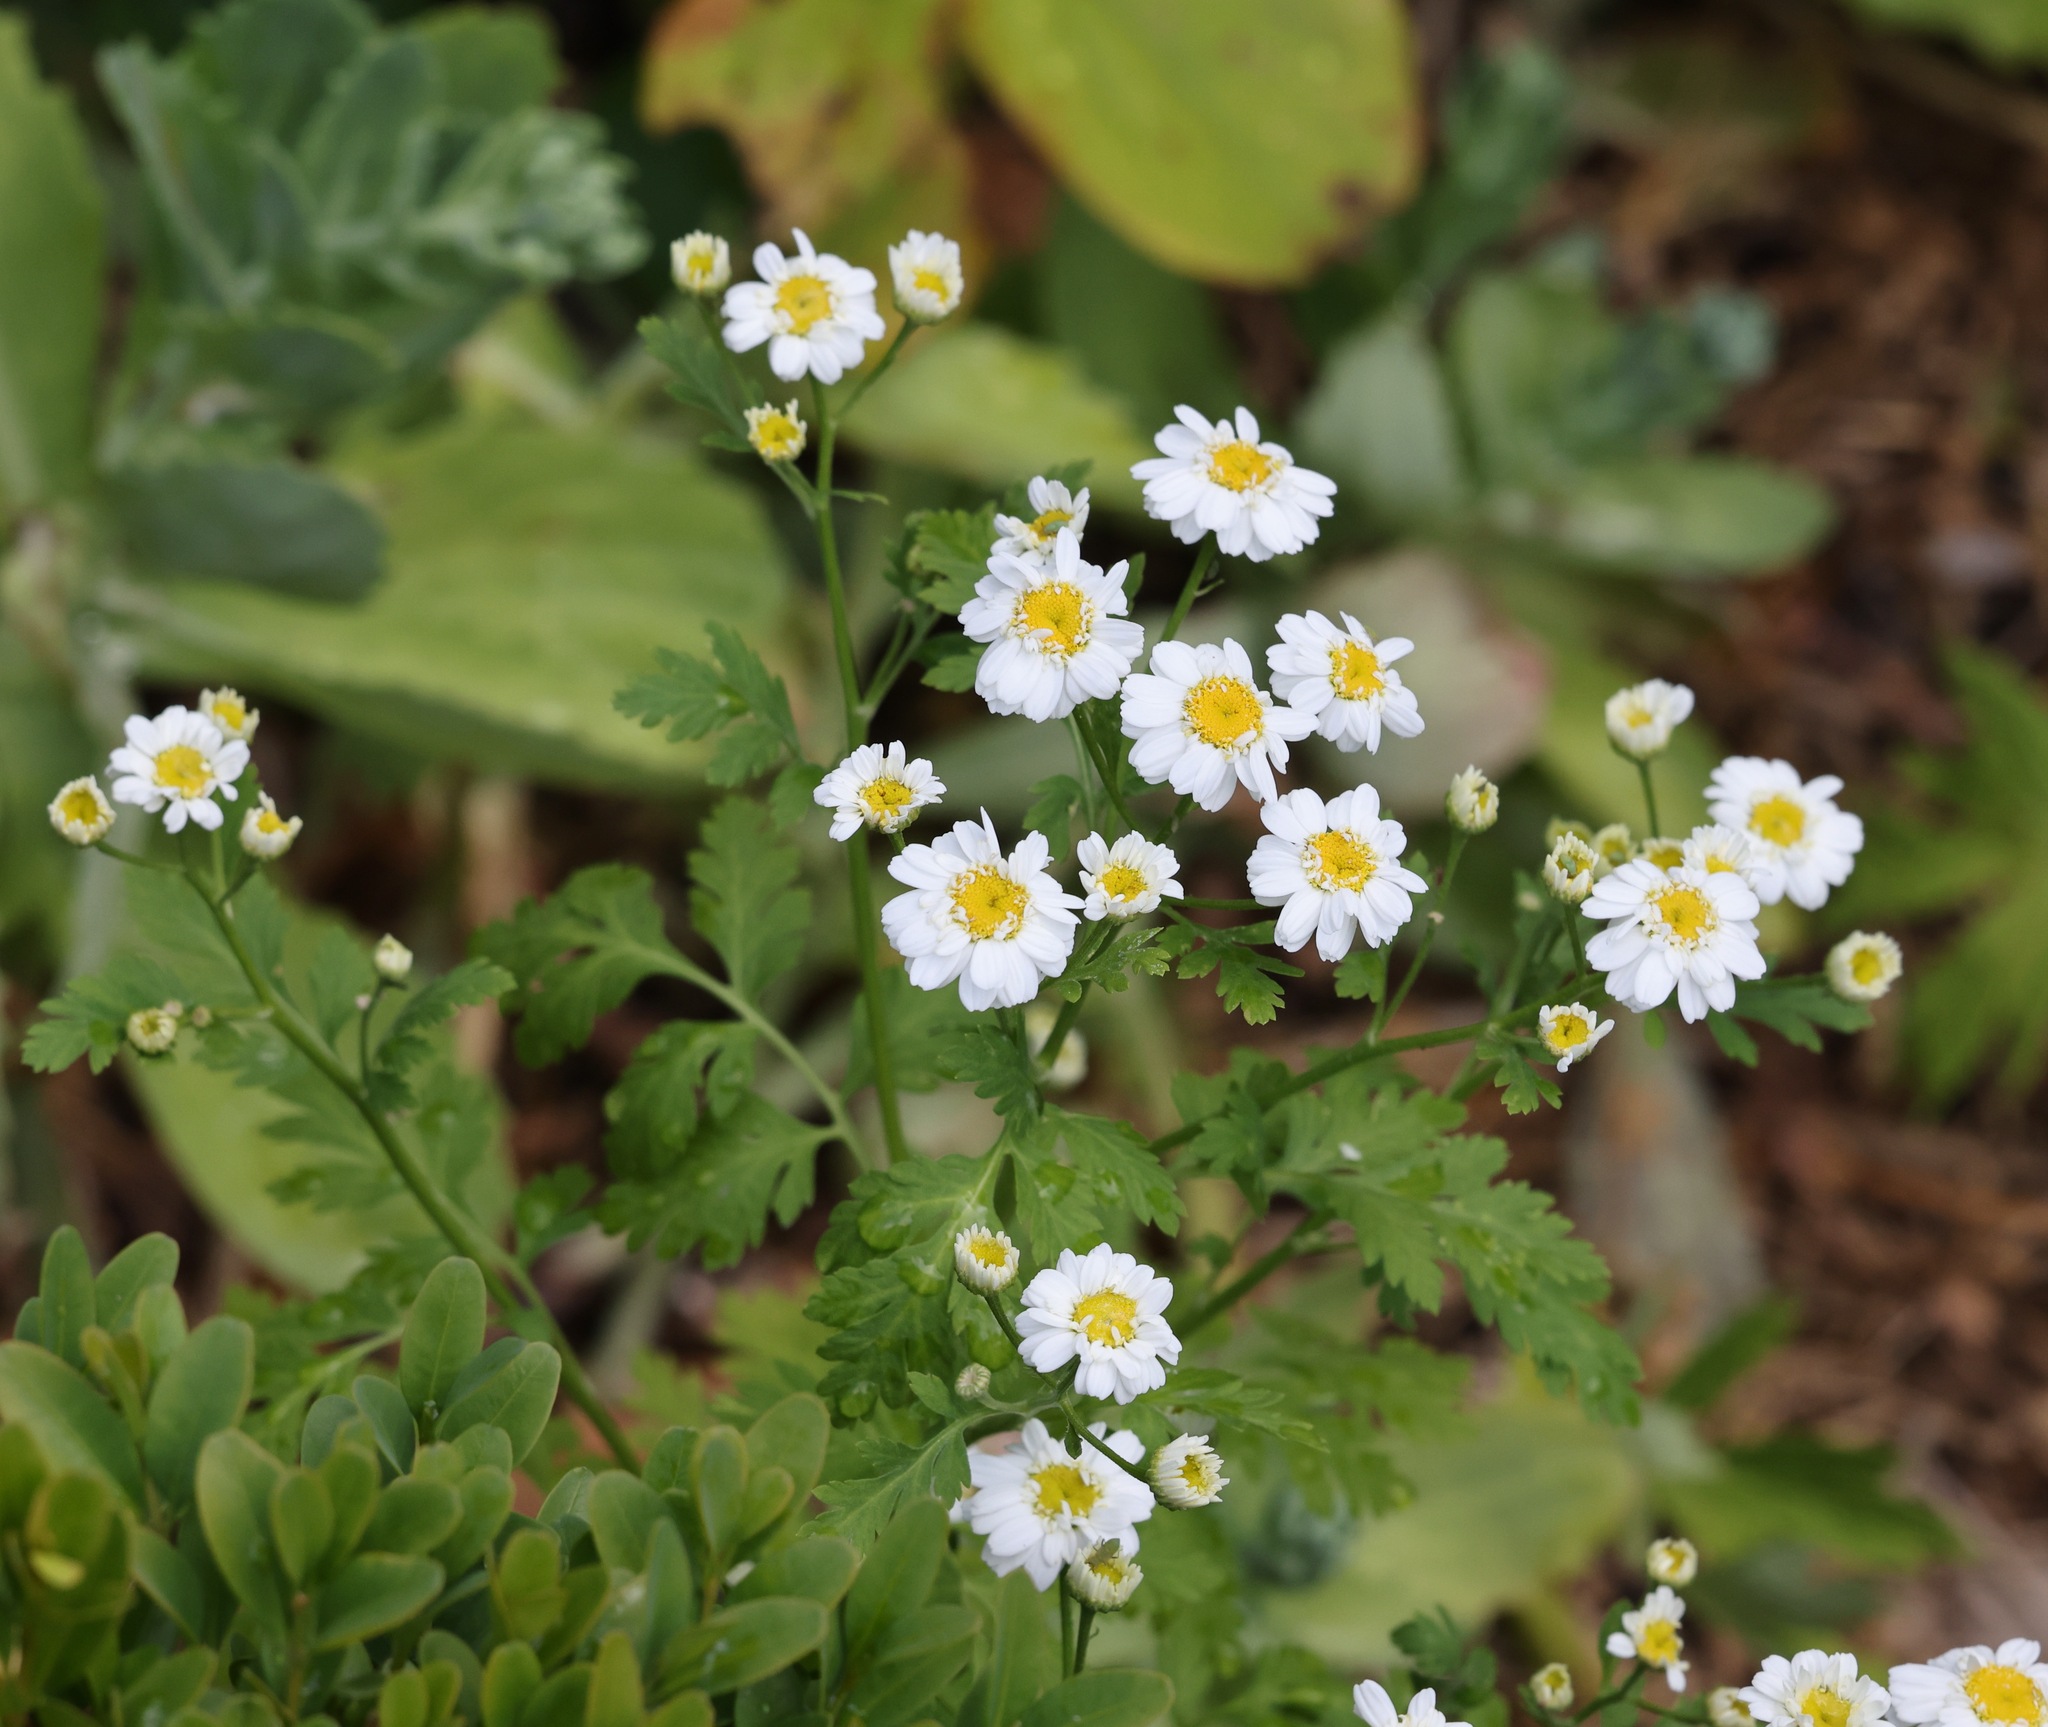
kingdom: Plantae
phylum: Tracheophyta
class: Magnoliopsida
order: Asterales
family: Asteraceae
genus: Tanacetum
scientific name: Tanacetum parthenium
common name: Feverfew
